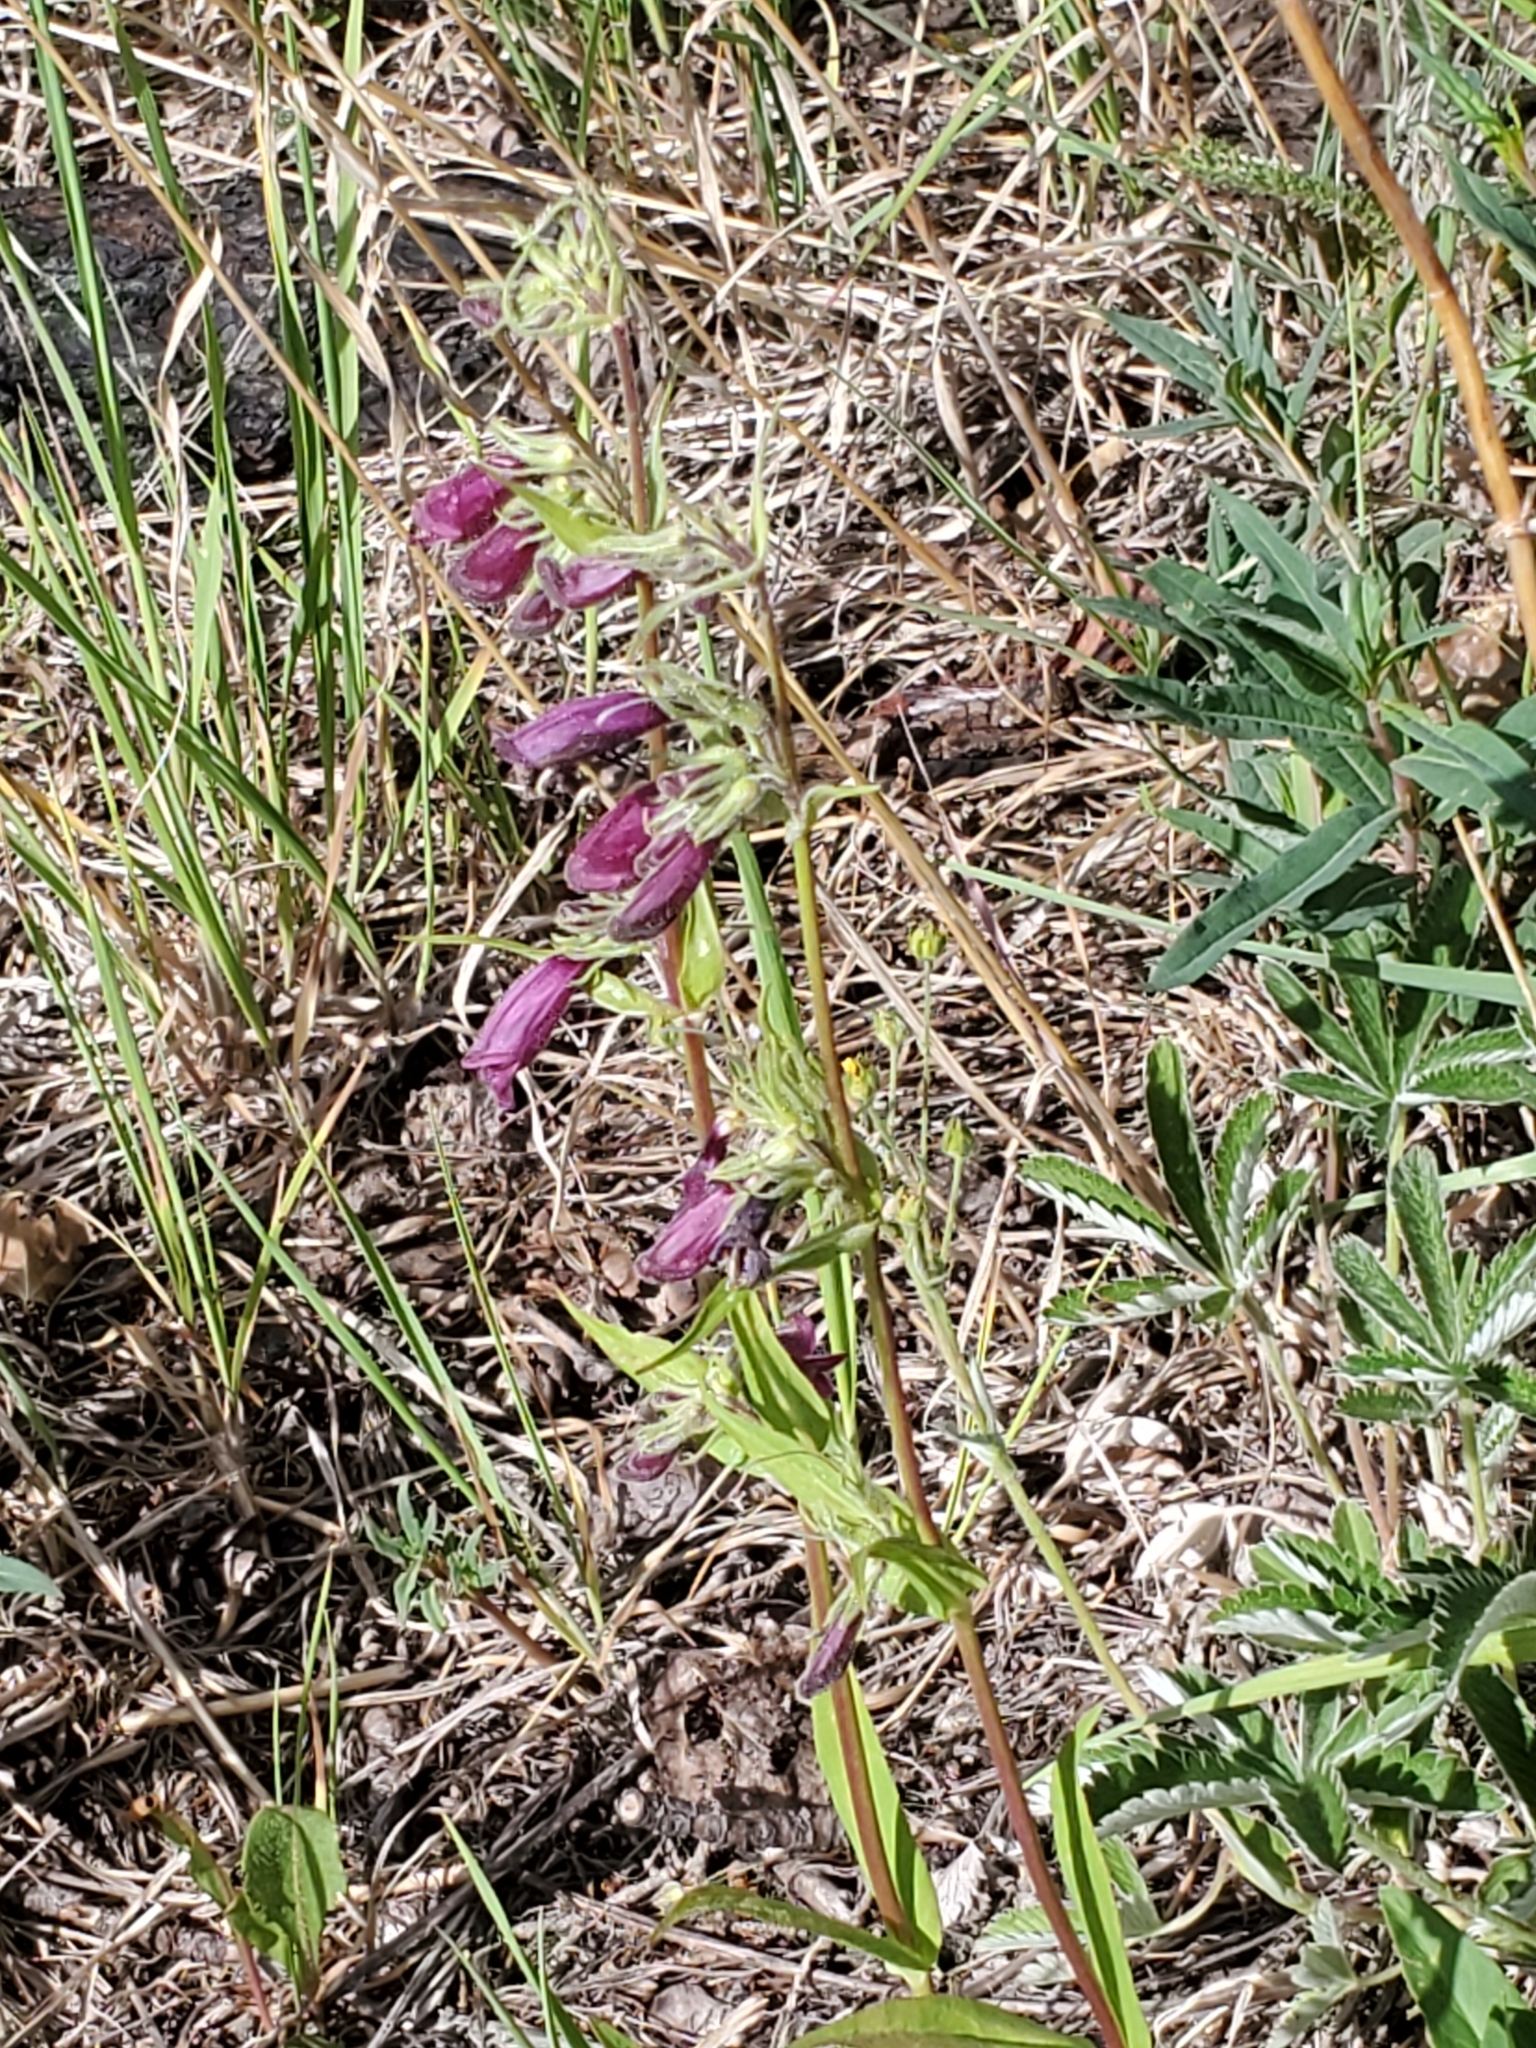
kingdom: Plantae
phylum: Tracheophyta
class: Magnoliopsida
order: Lamiales
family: Plantaginaceae
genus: Penstemon
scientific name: Penstemon whippleanus
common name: Whipple's penstemon
